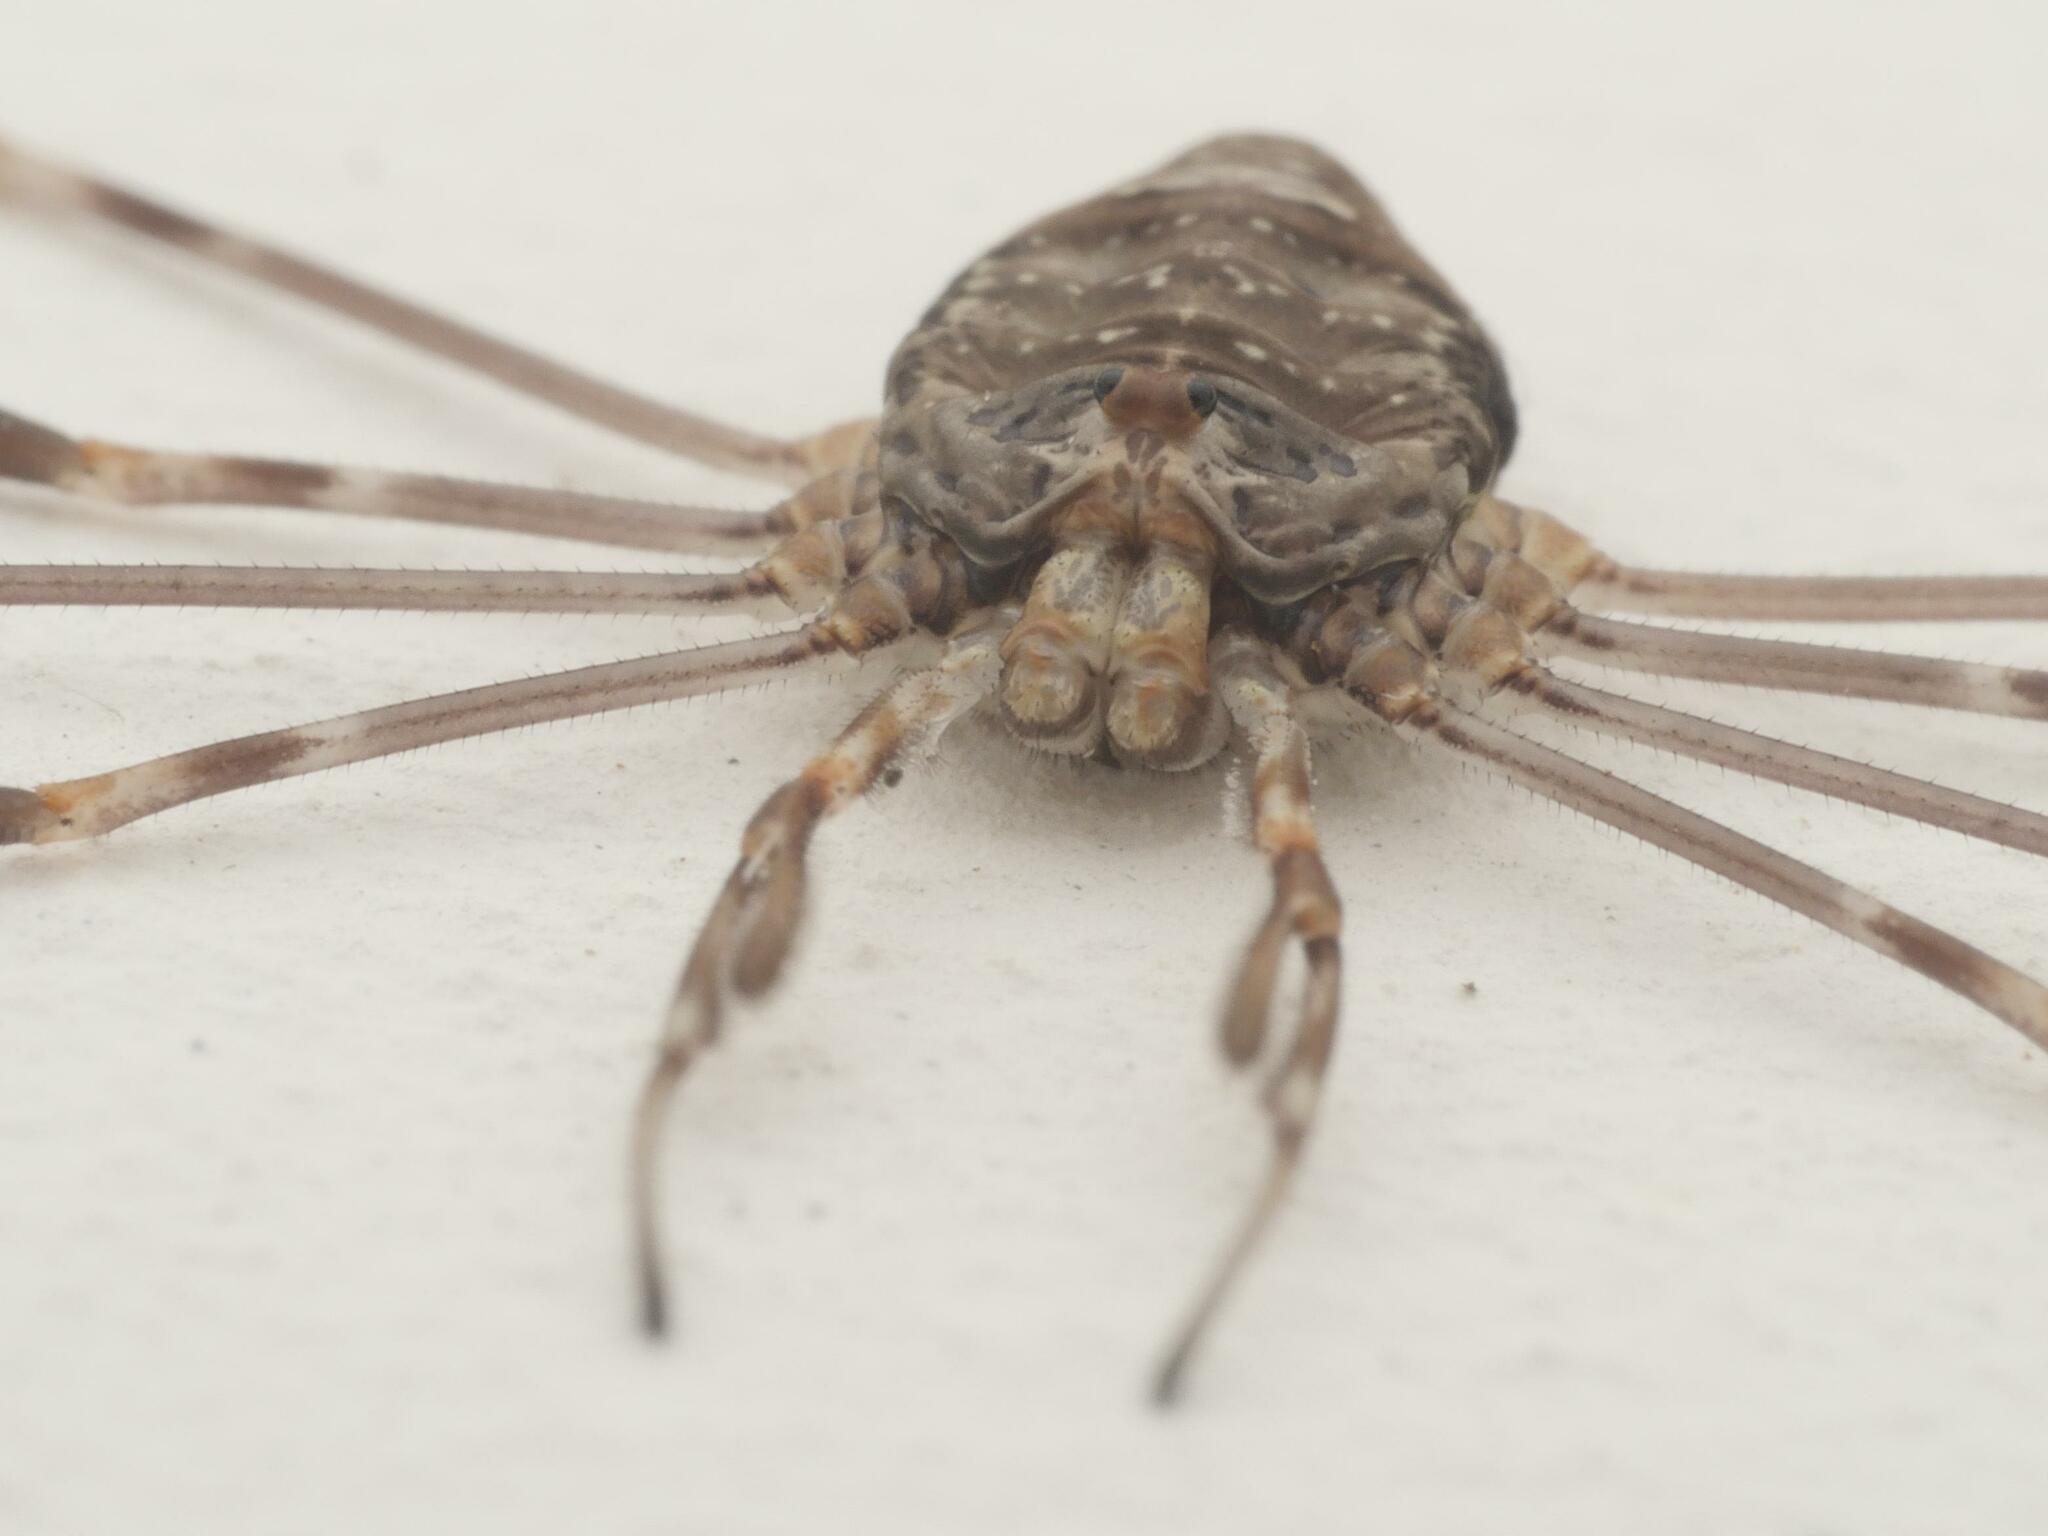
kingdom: Animalia
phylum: Arthropoda
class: Arachnida
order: Opiliones
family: Phalangiidae
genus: Dicranopalpus
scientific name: Dicranopalpus ramosus
